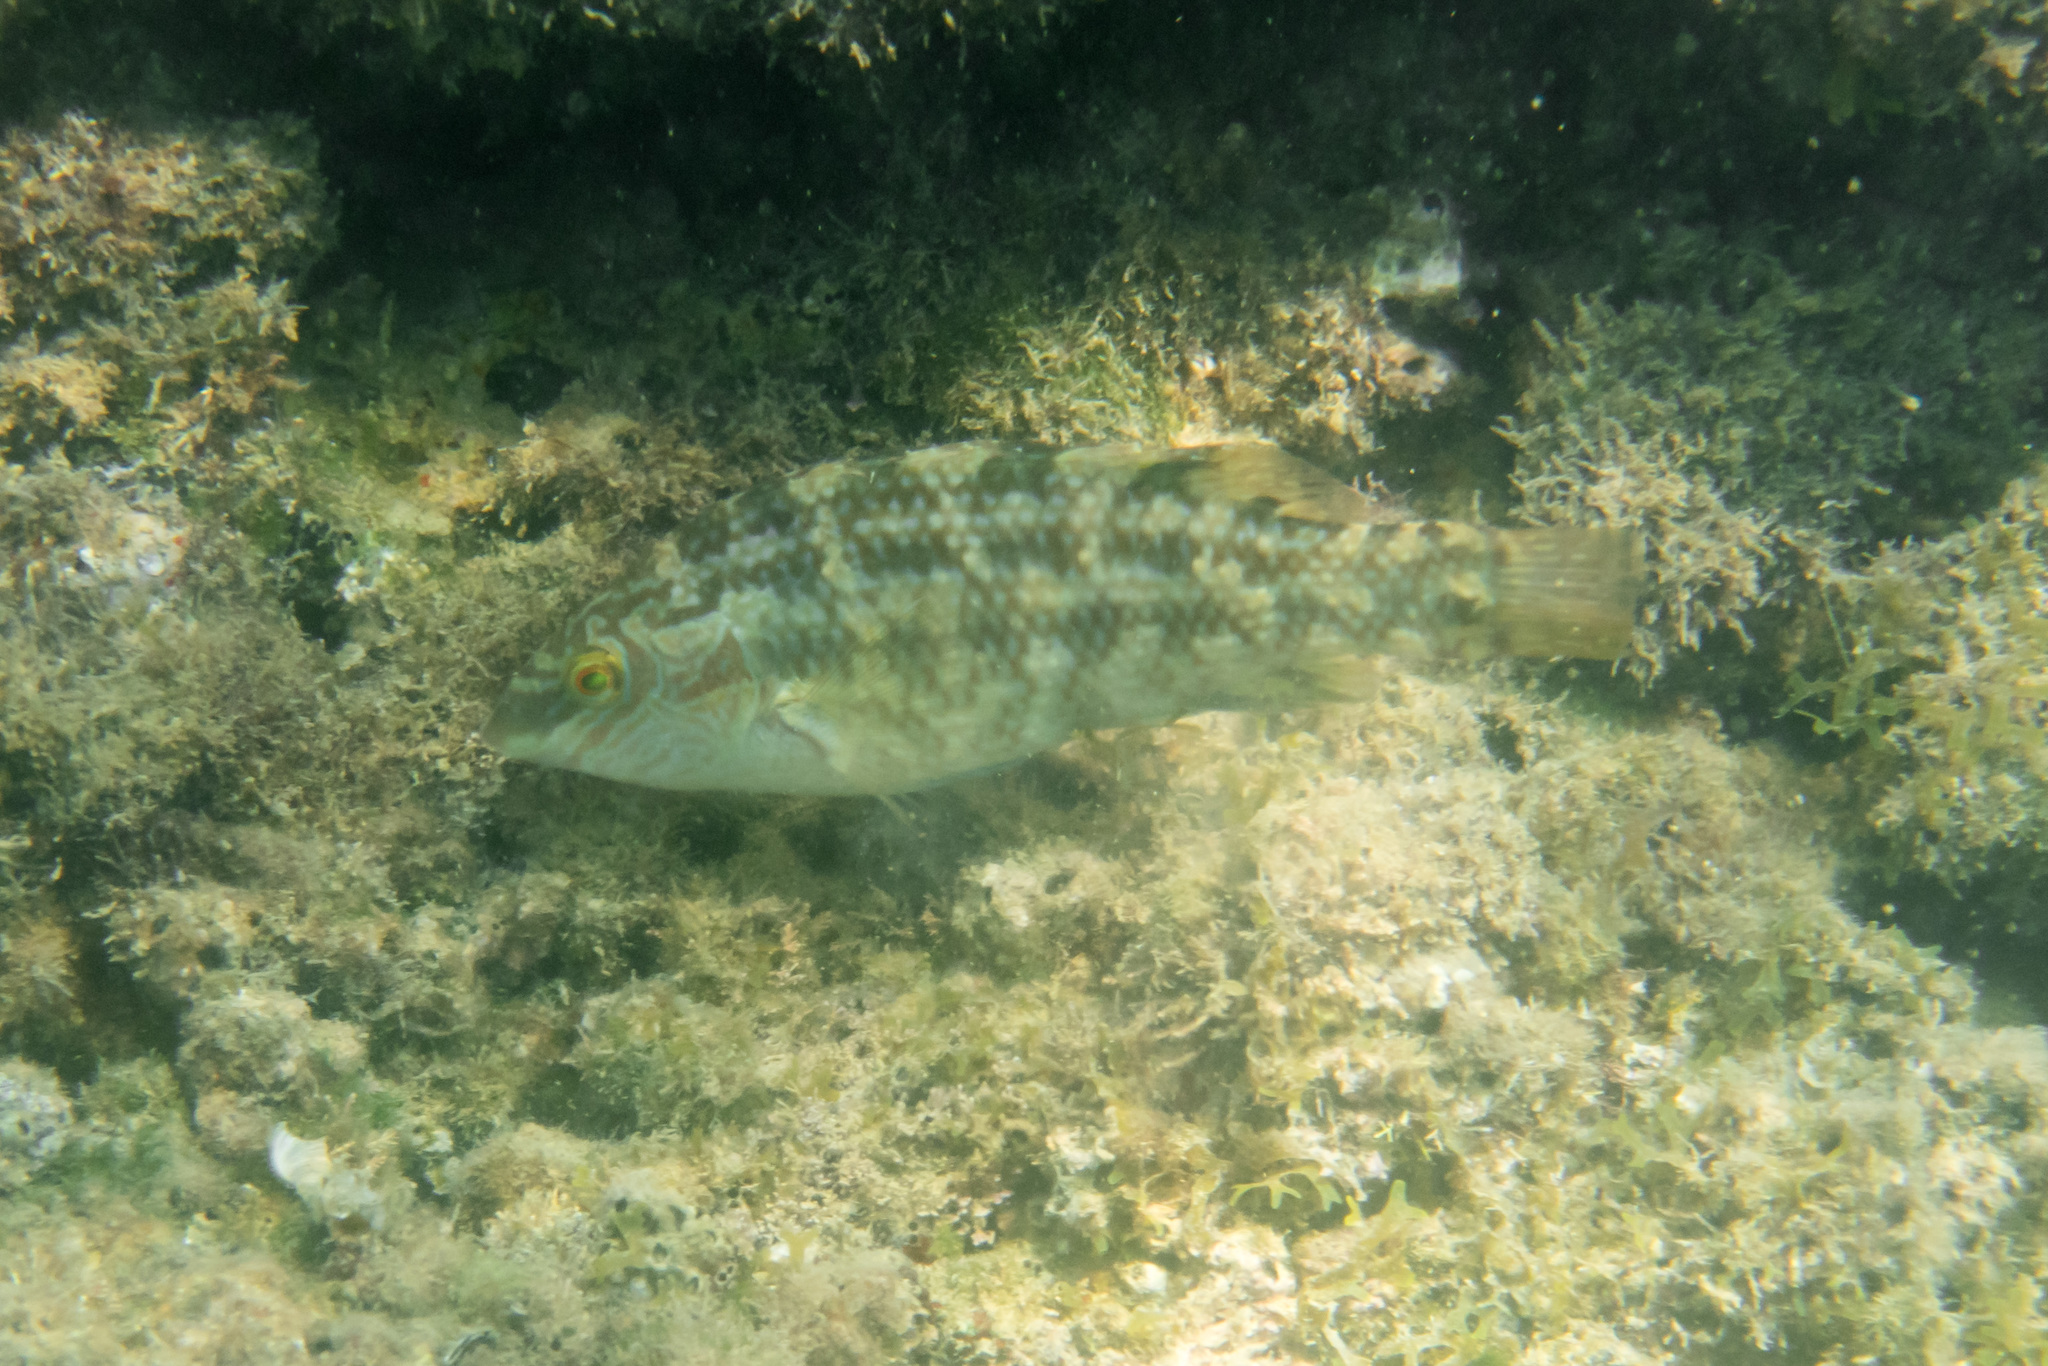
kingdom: Animalia
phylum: Chordata
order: Perciformes
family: Labridae
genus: Symphodus
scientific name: Symphodus melops
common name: Corkwing
